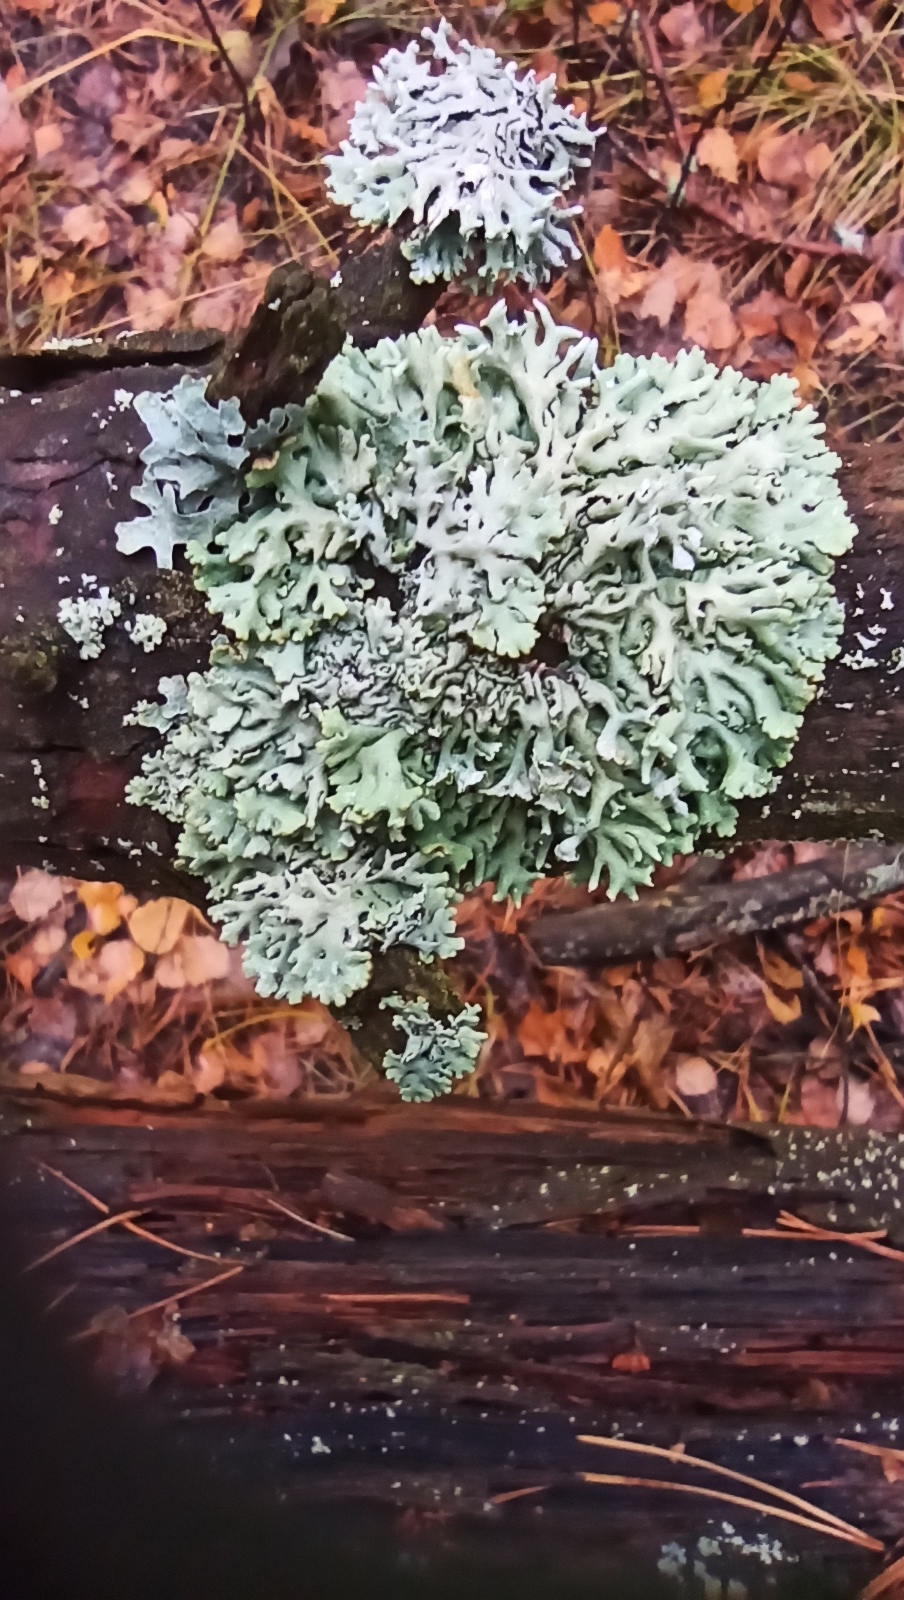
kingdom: Fungi
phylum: Ascomycota
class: Lecanoromycetes
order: Lecanorales
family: Parmeliaceae
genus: Hypogymnia
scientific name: Hypogymnia physodes
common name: Dark crottle
